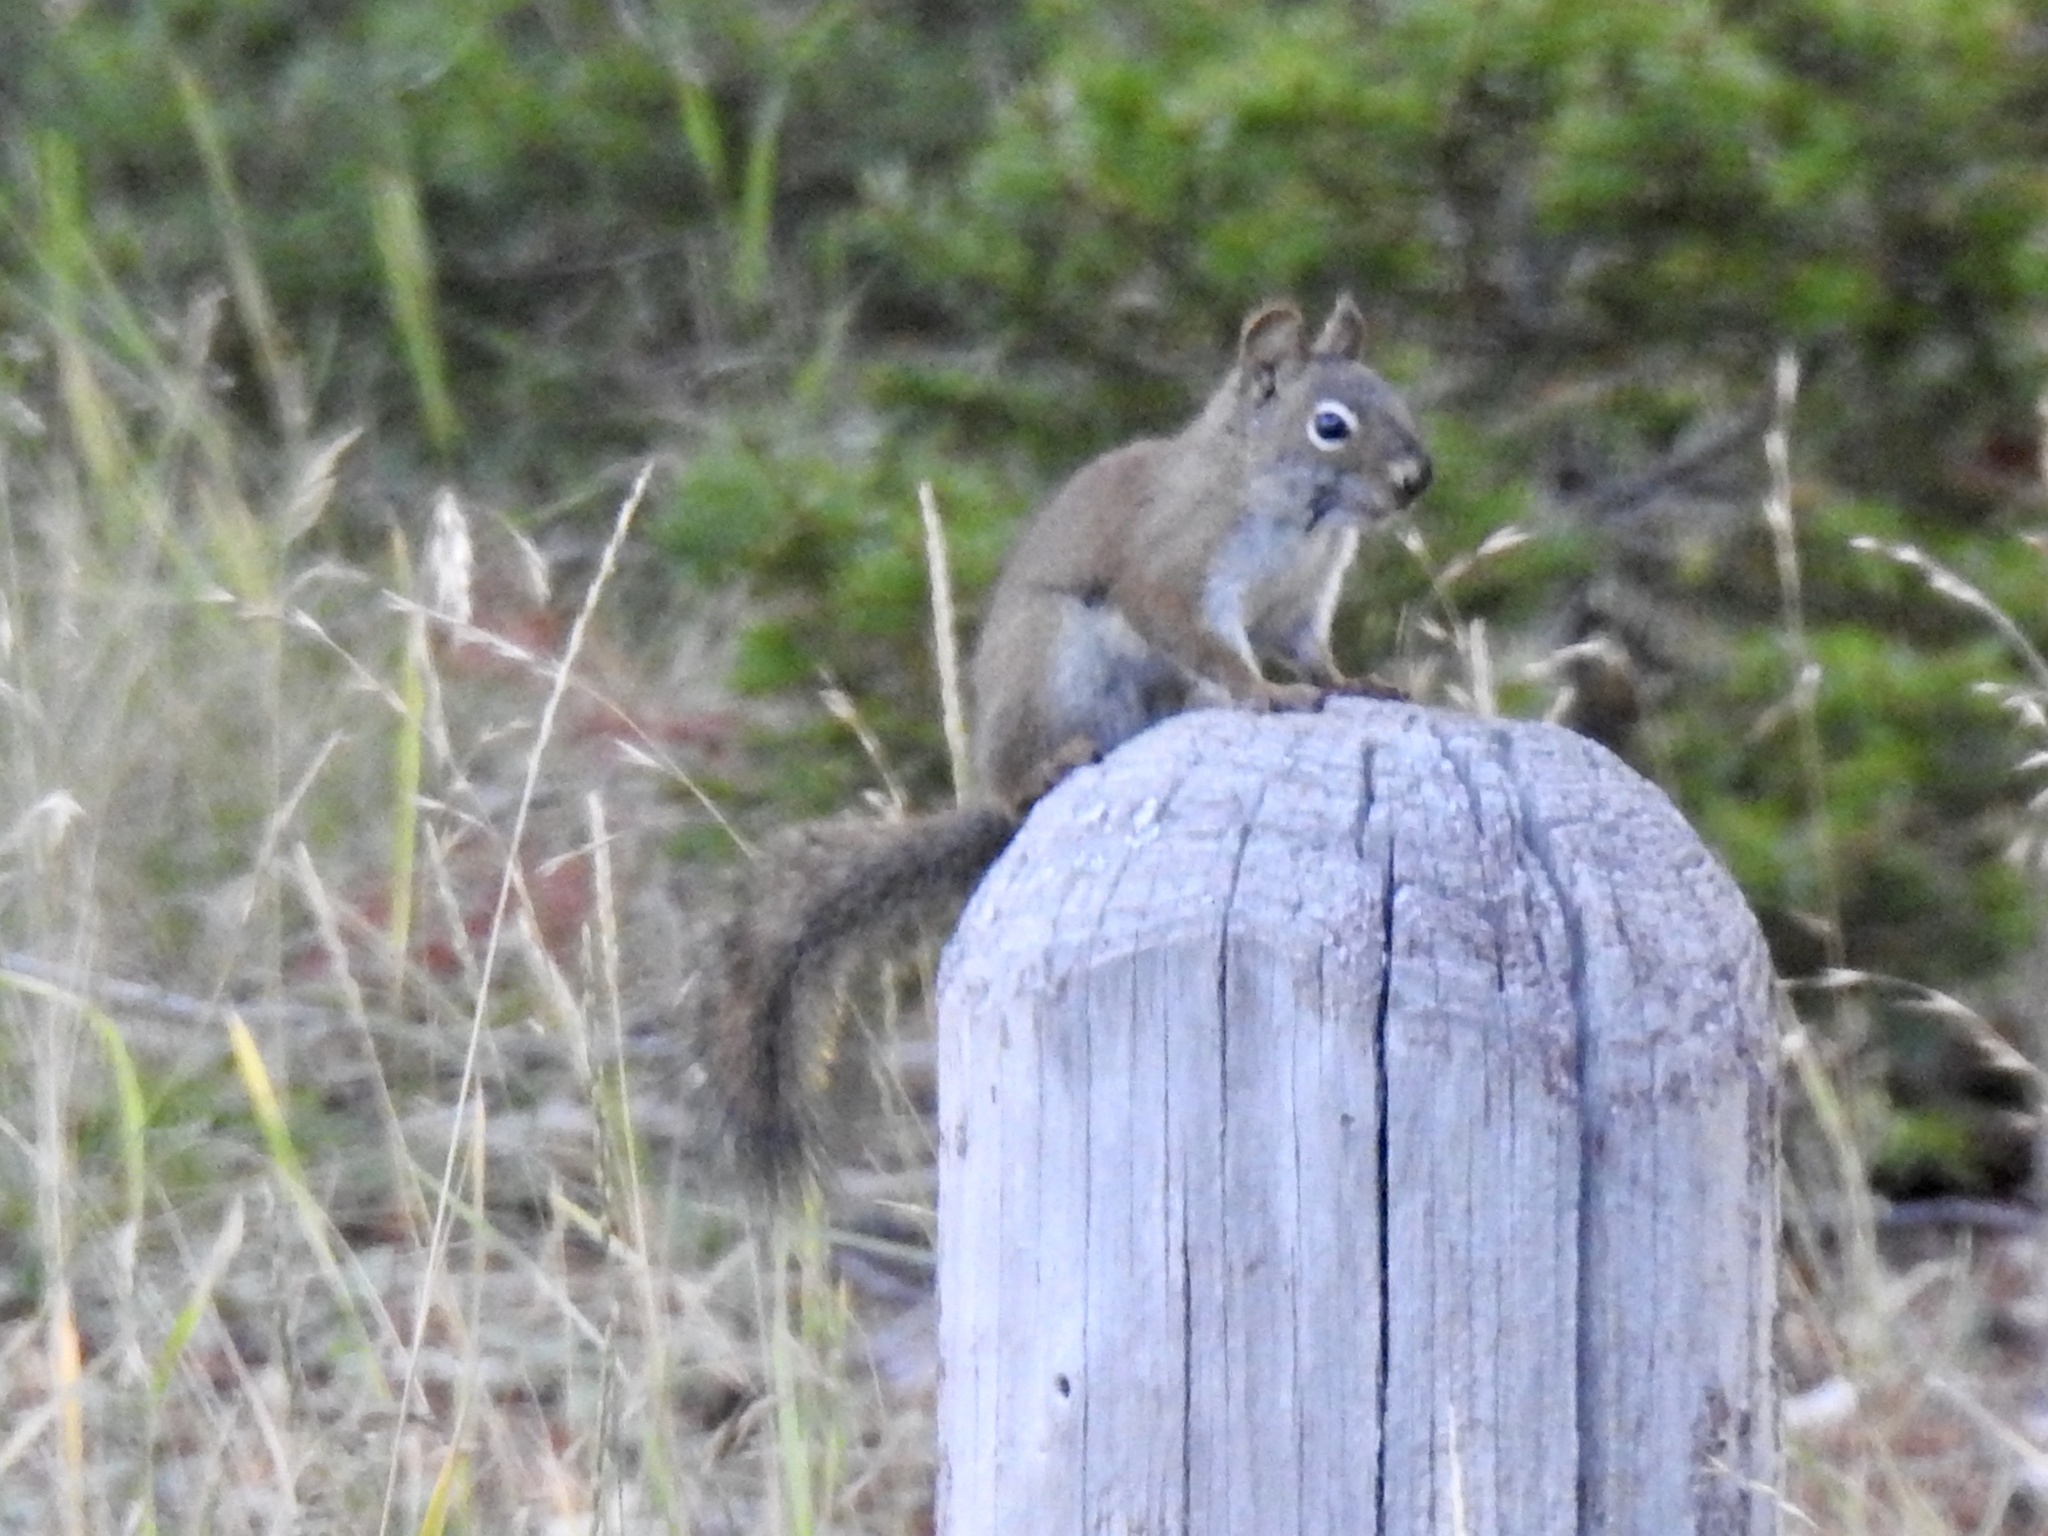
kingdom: Animalia
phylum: Chordata
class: Mammalia
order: Rodentia
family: Sciuridae
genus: Tamiasciurus
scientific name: Tamiasciurus hudsonicus
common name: Red squirrel
